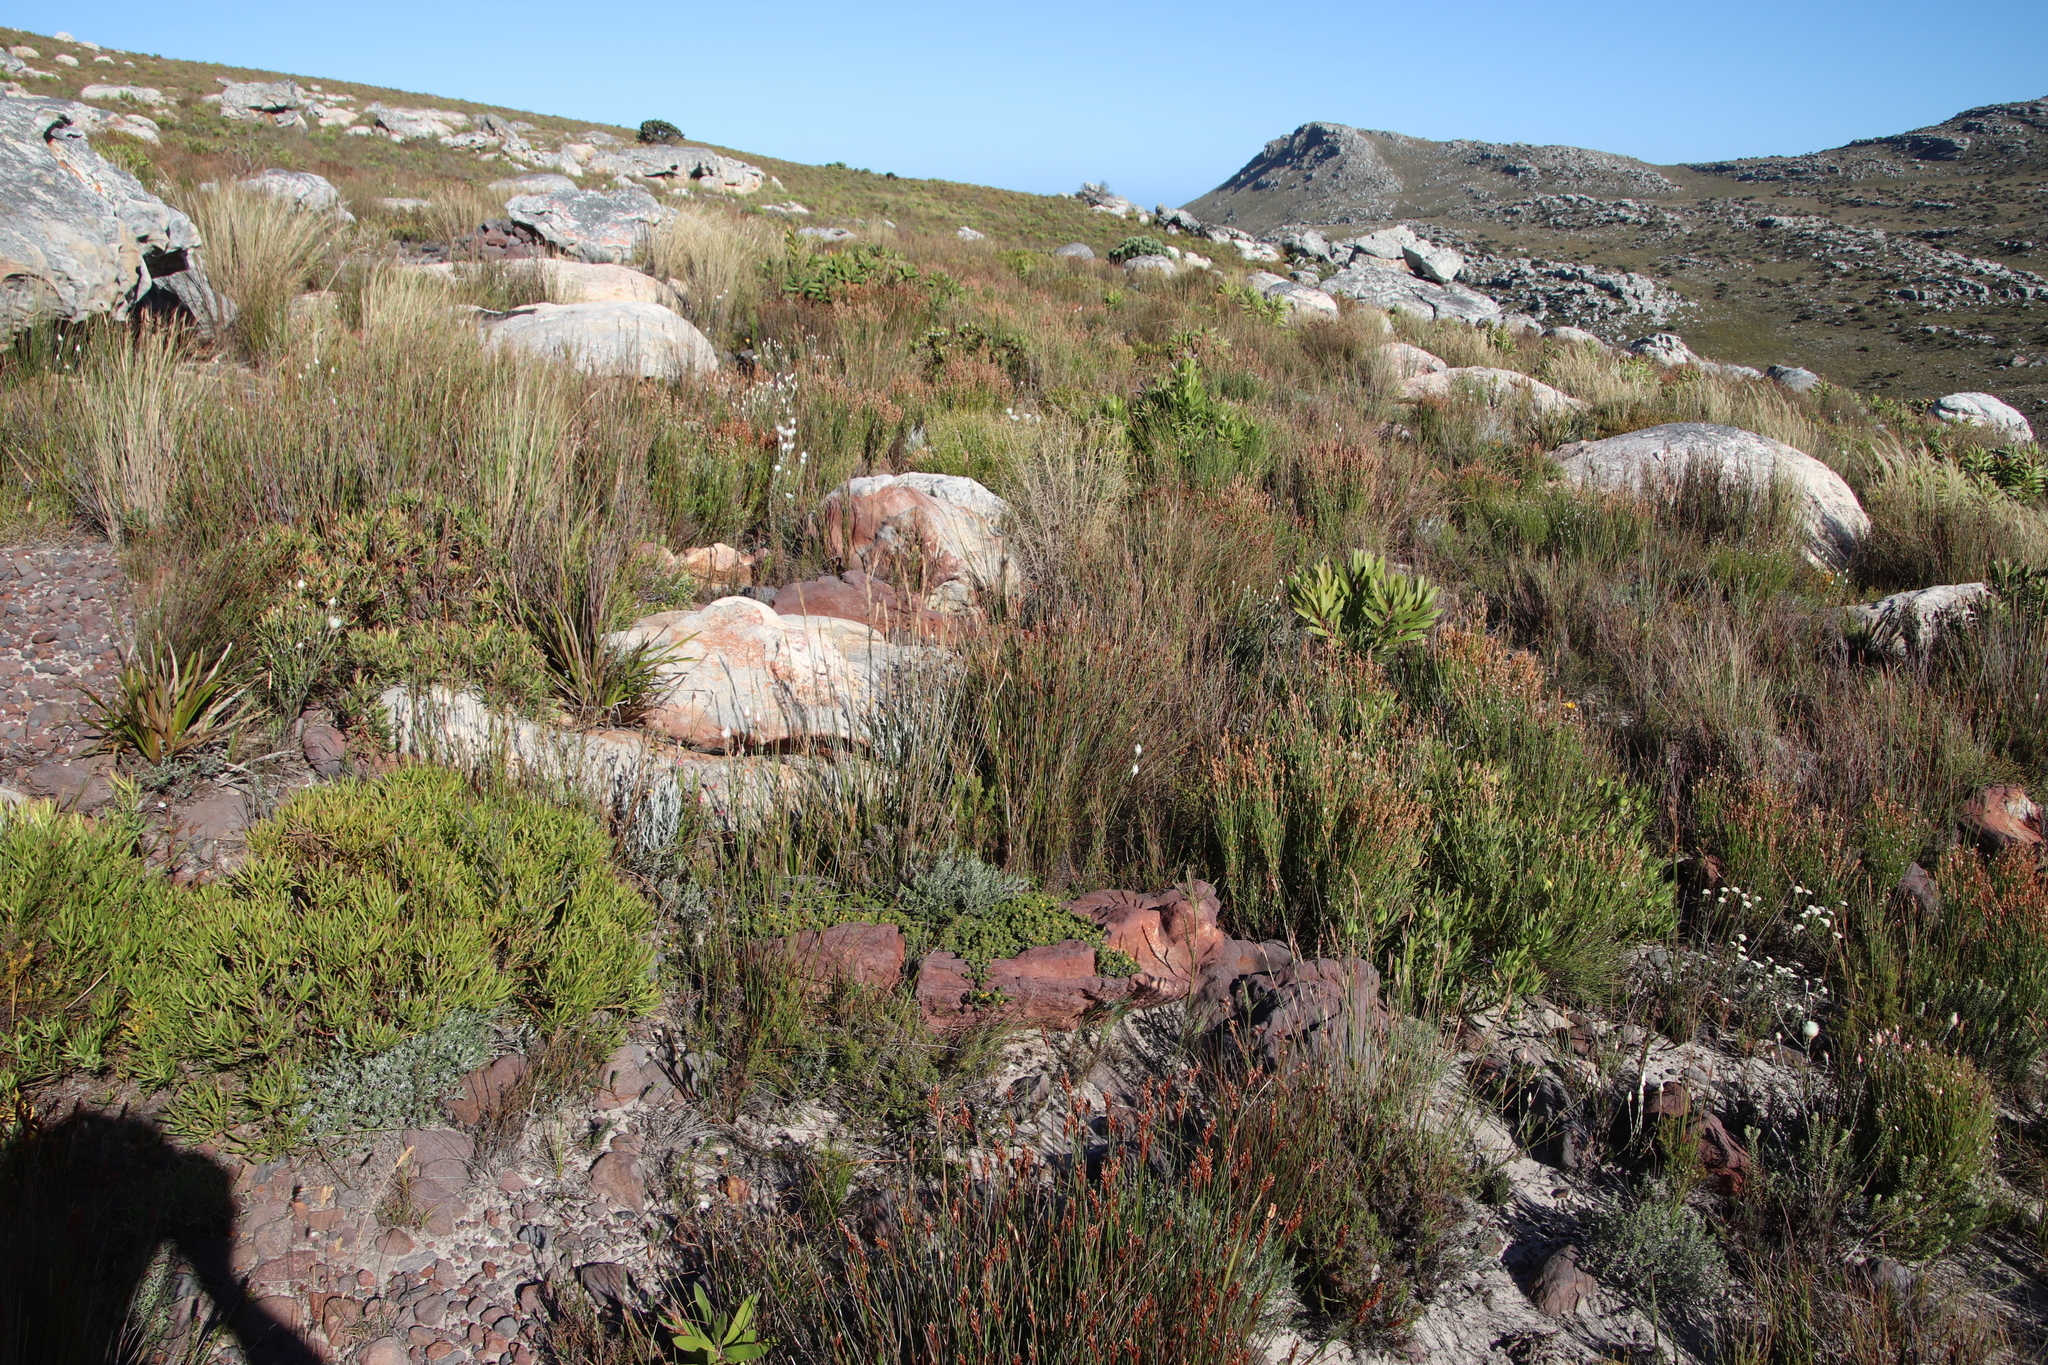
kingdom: Plantae
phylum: Tracheophyta
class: Magnoliopsida
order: Asterales
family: Asteraceae
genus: Edmondia
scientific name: Edmondia sesamoides
